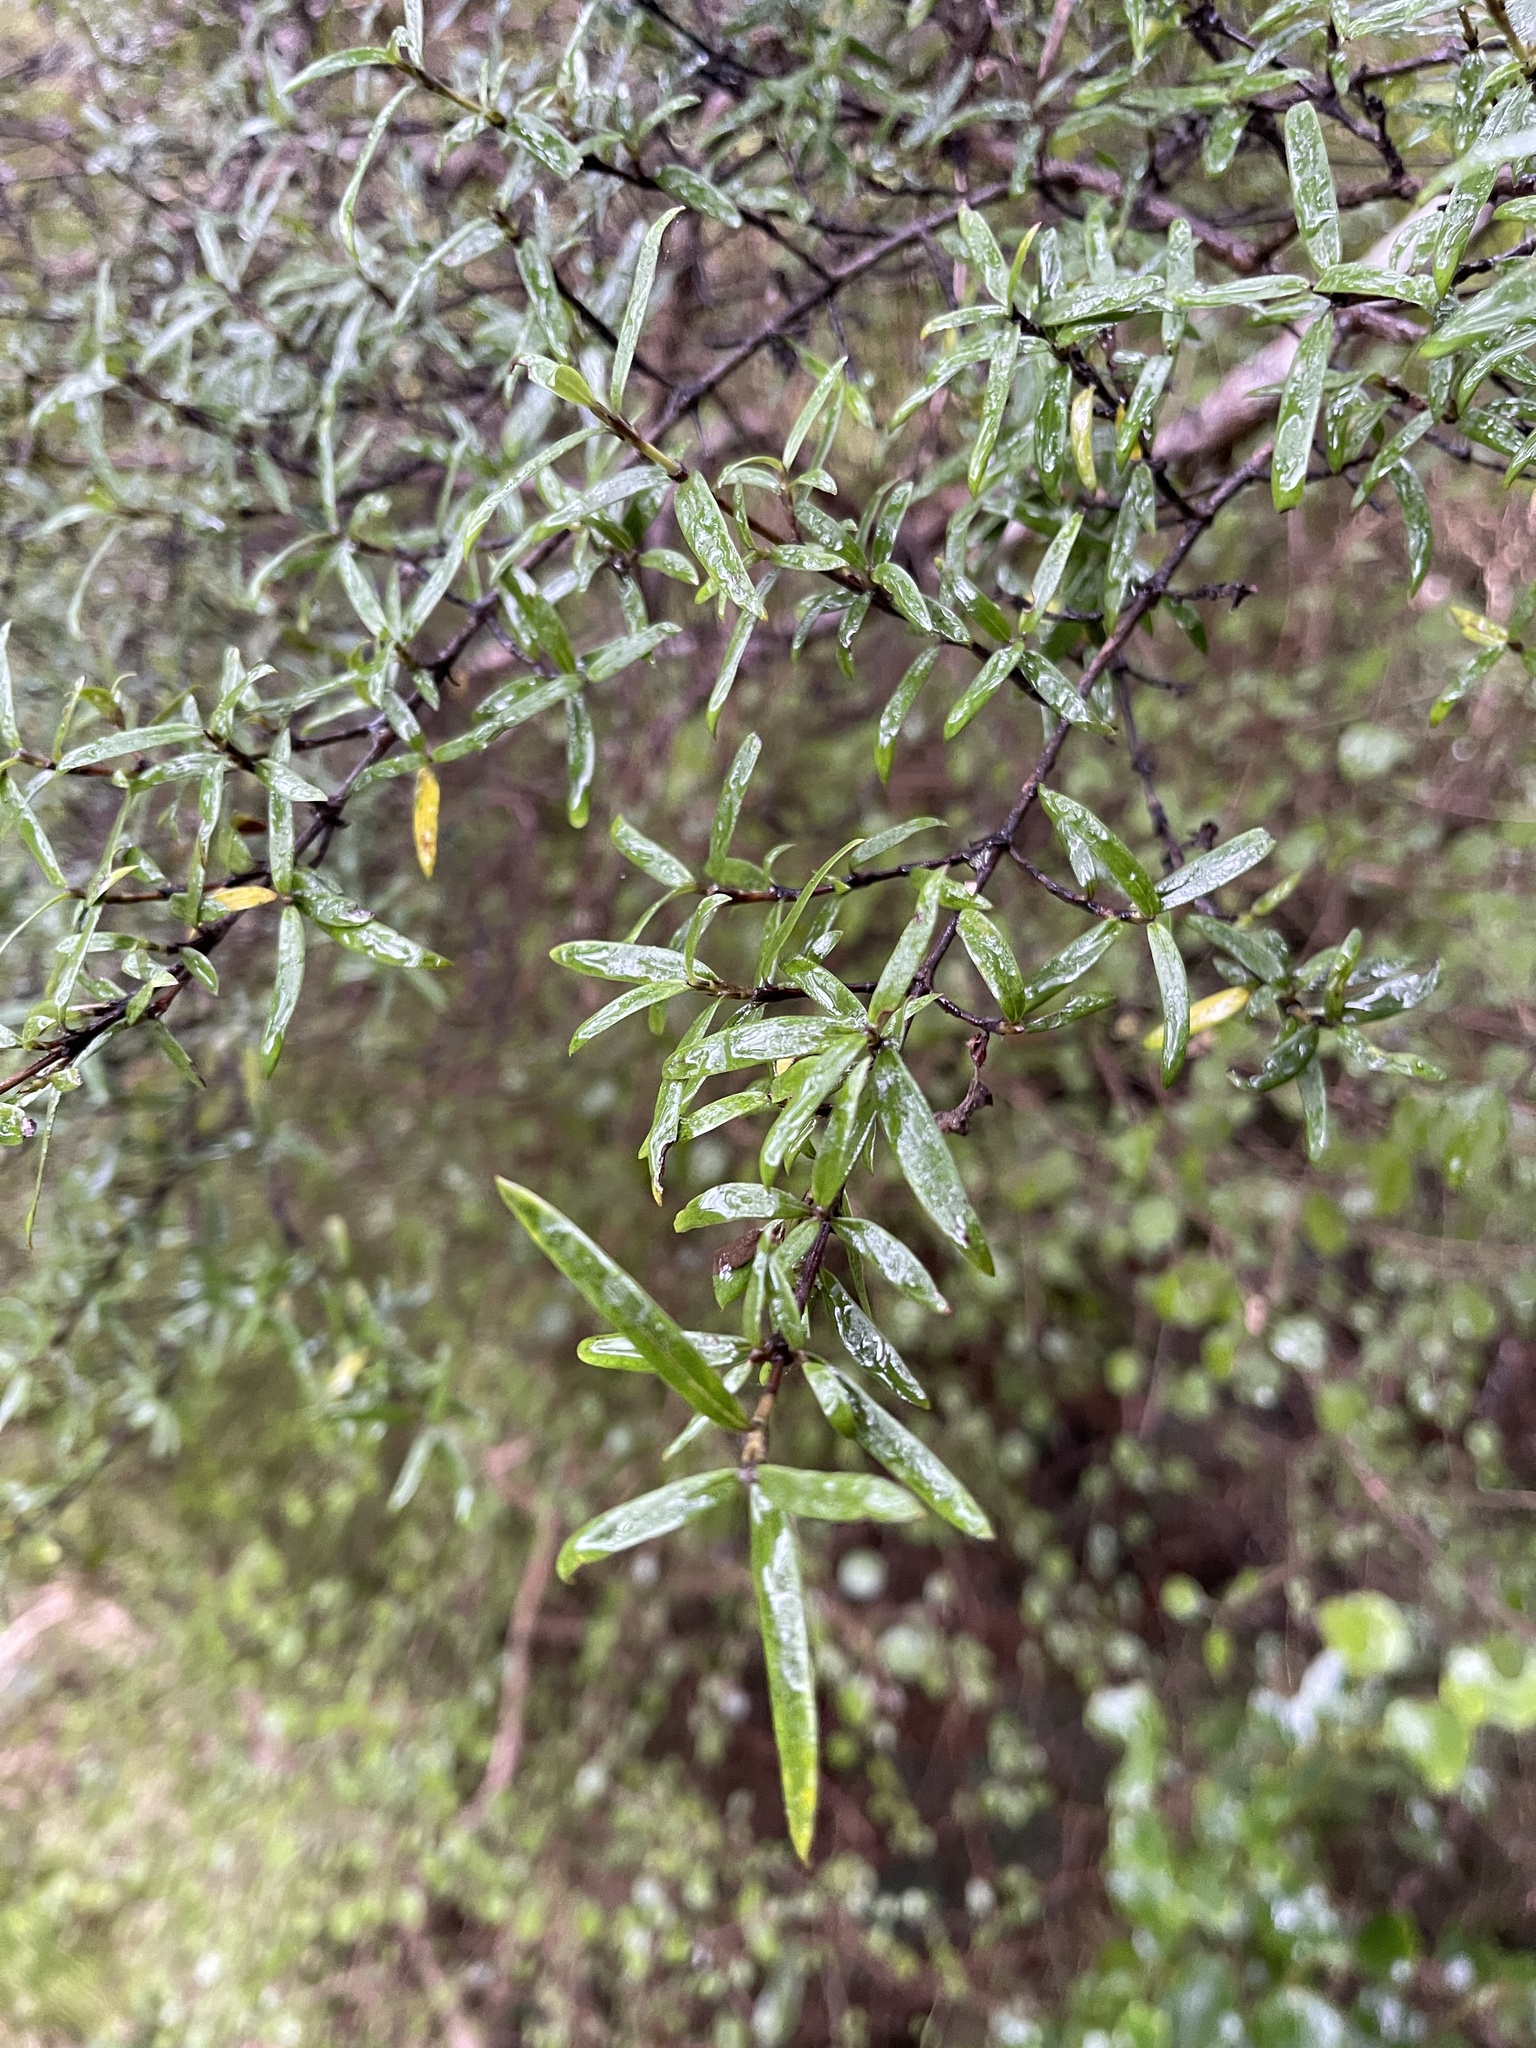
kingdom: Plantae
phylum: Tracheophyta
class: Magnoliopsida
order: Gentianales
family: Rubiaceae
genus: Coprosma
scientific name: Coprosma linariifolia
